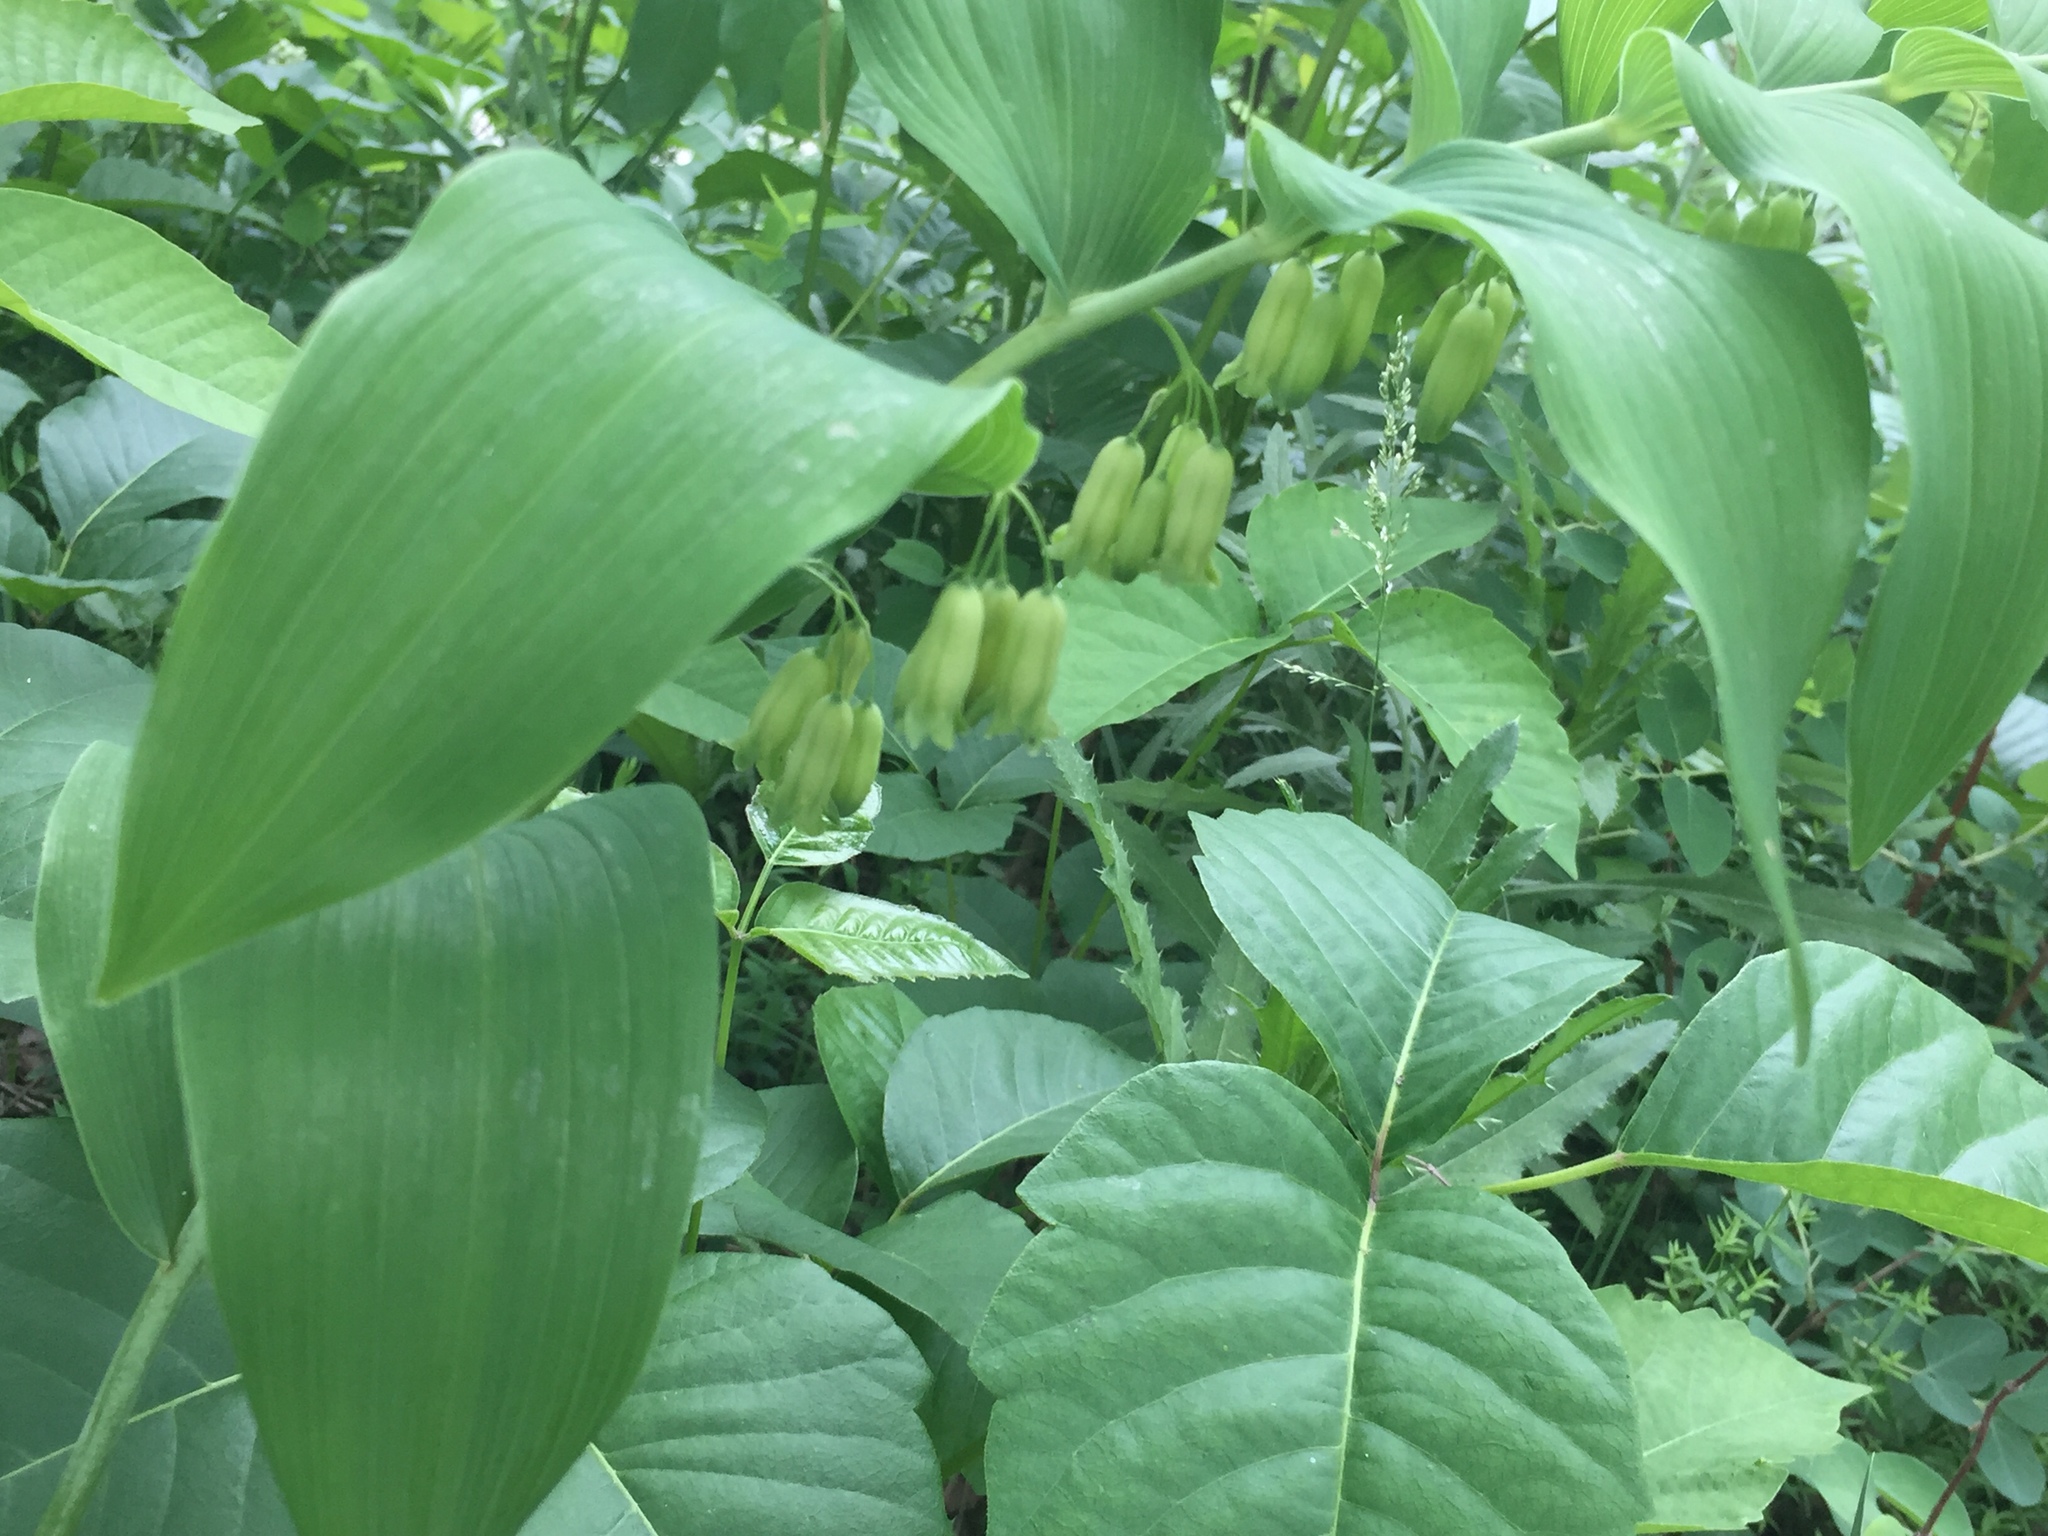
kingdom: Plantae
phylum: Tracheophyta
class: Liliopsida
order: Asparagales
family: Asparagaceae
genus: Polygonatum
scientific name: Polygonatum biflorum
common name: American solomon's-seal
